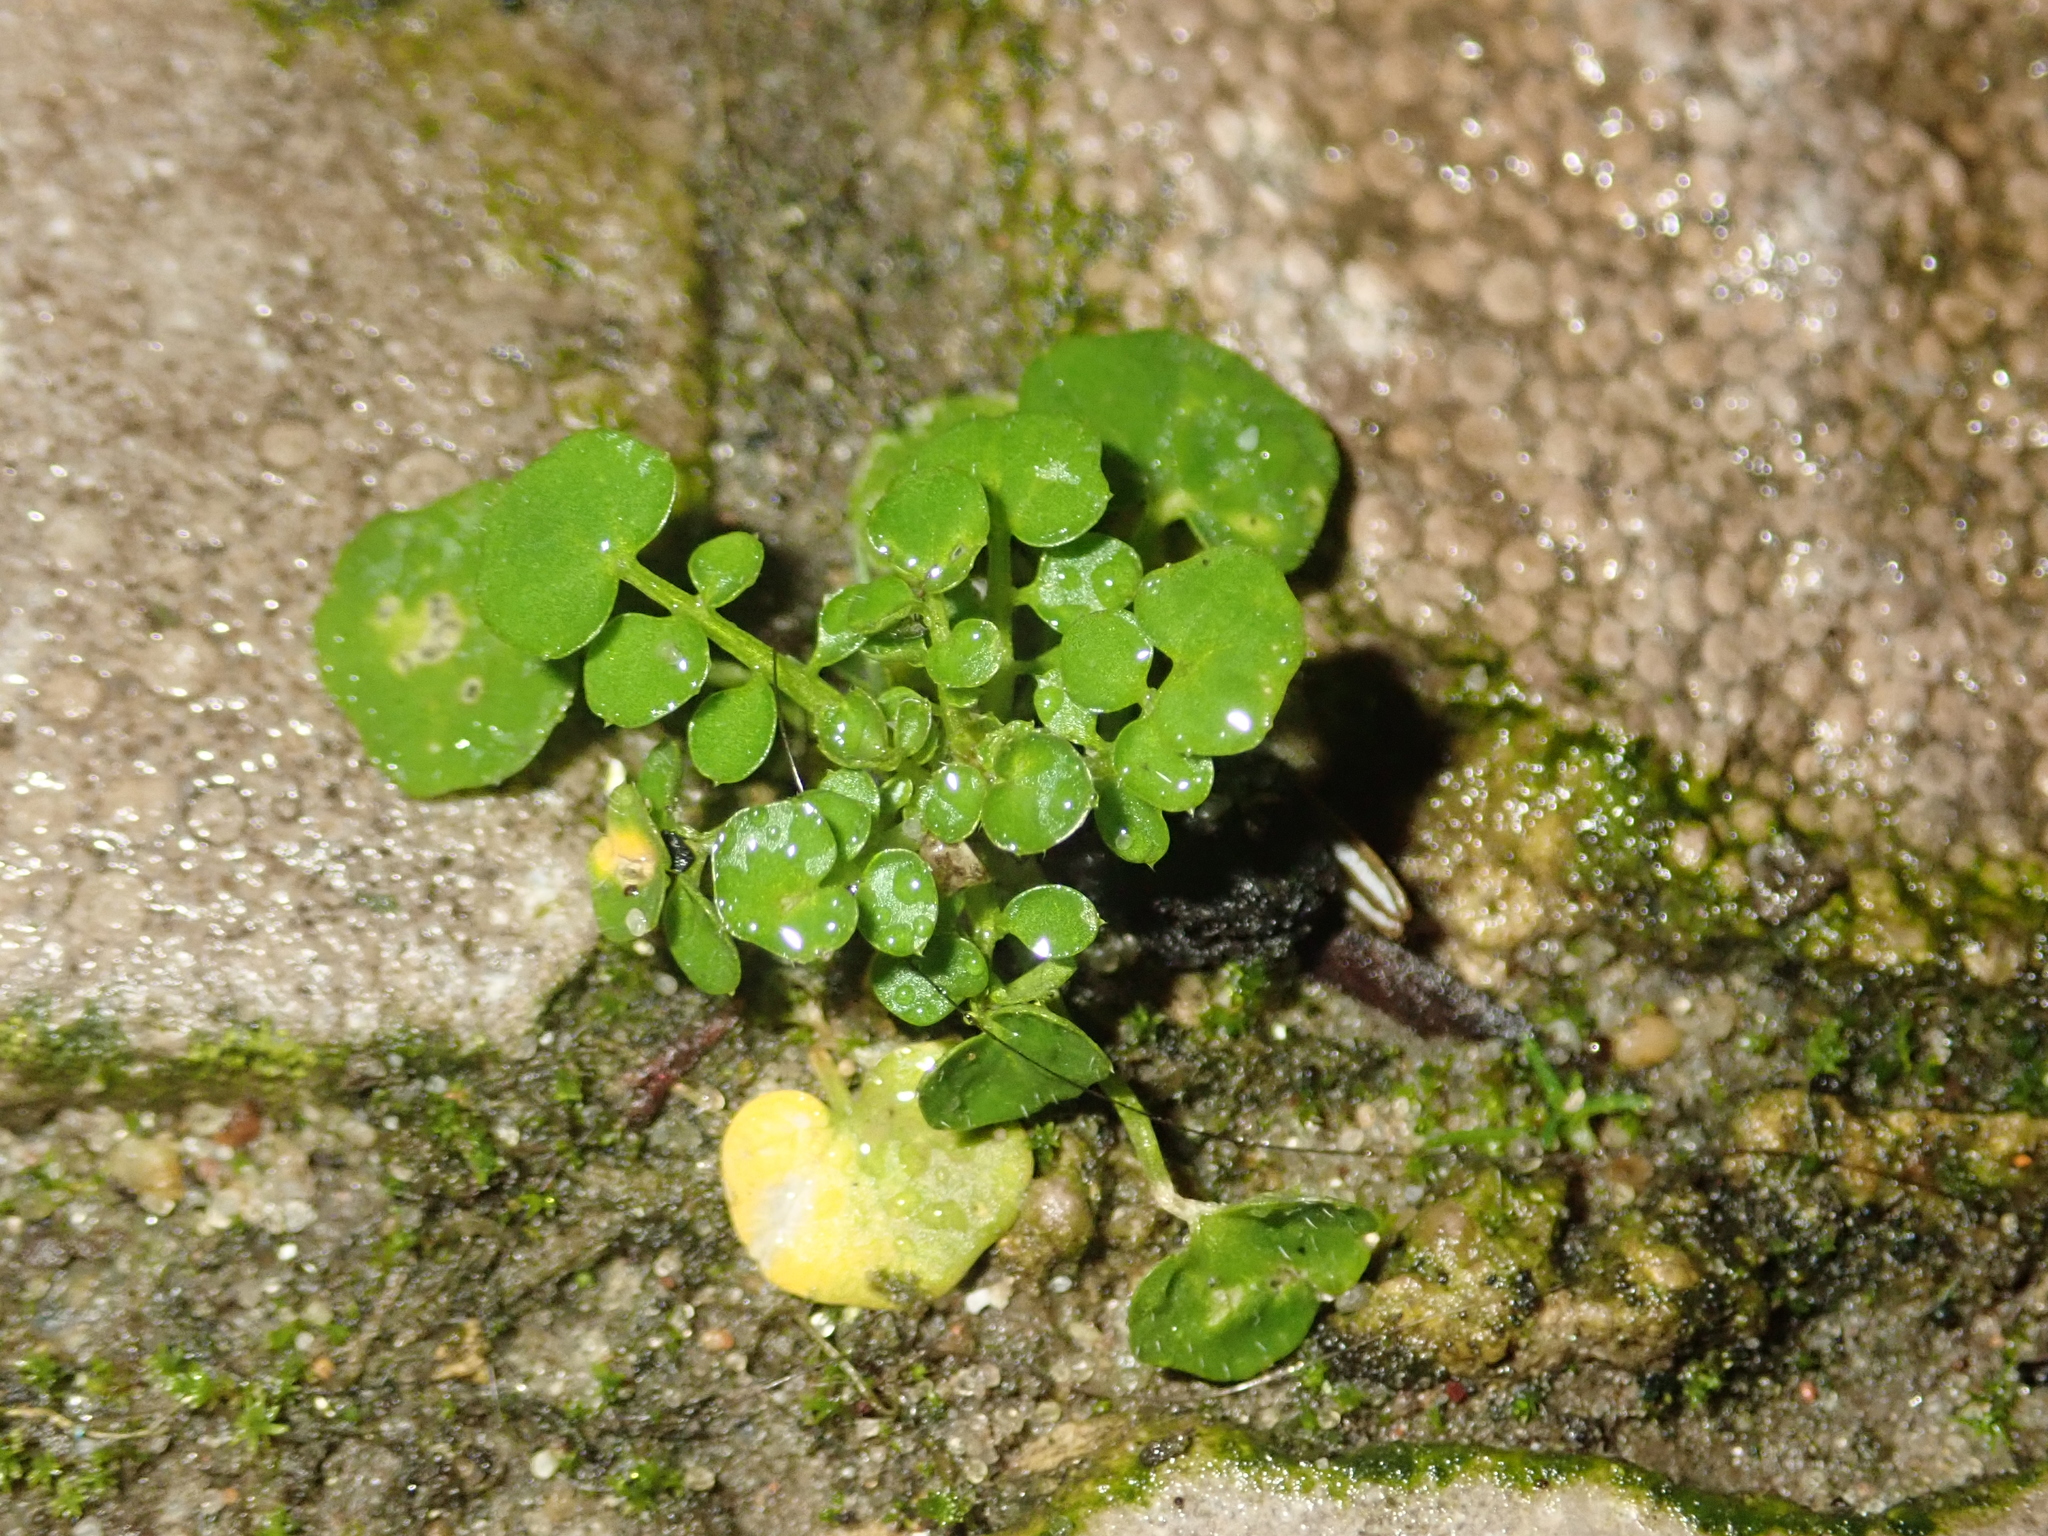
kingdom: Plantae
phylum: Tracheophyta
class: Magnoliopsida
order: Brassicales
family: Brassicaceae
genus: Cardamine
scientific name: Cardamine hirsuta
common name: Hairy bittercress
